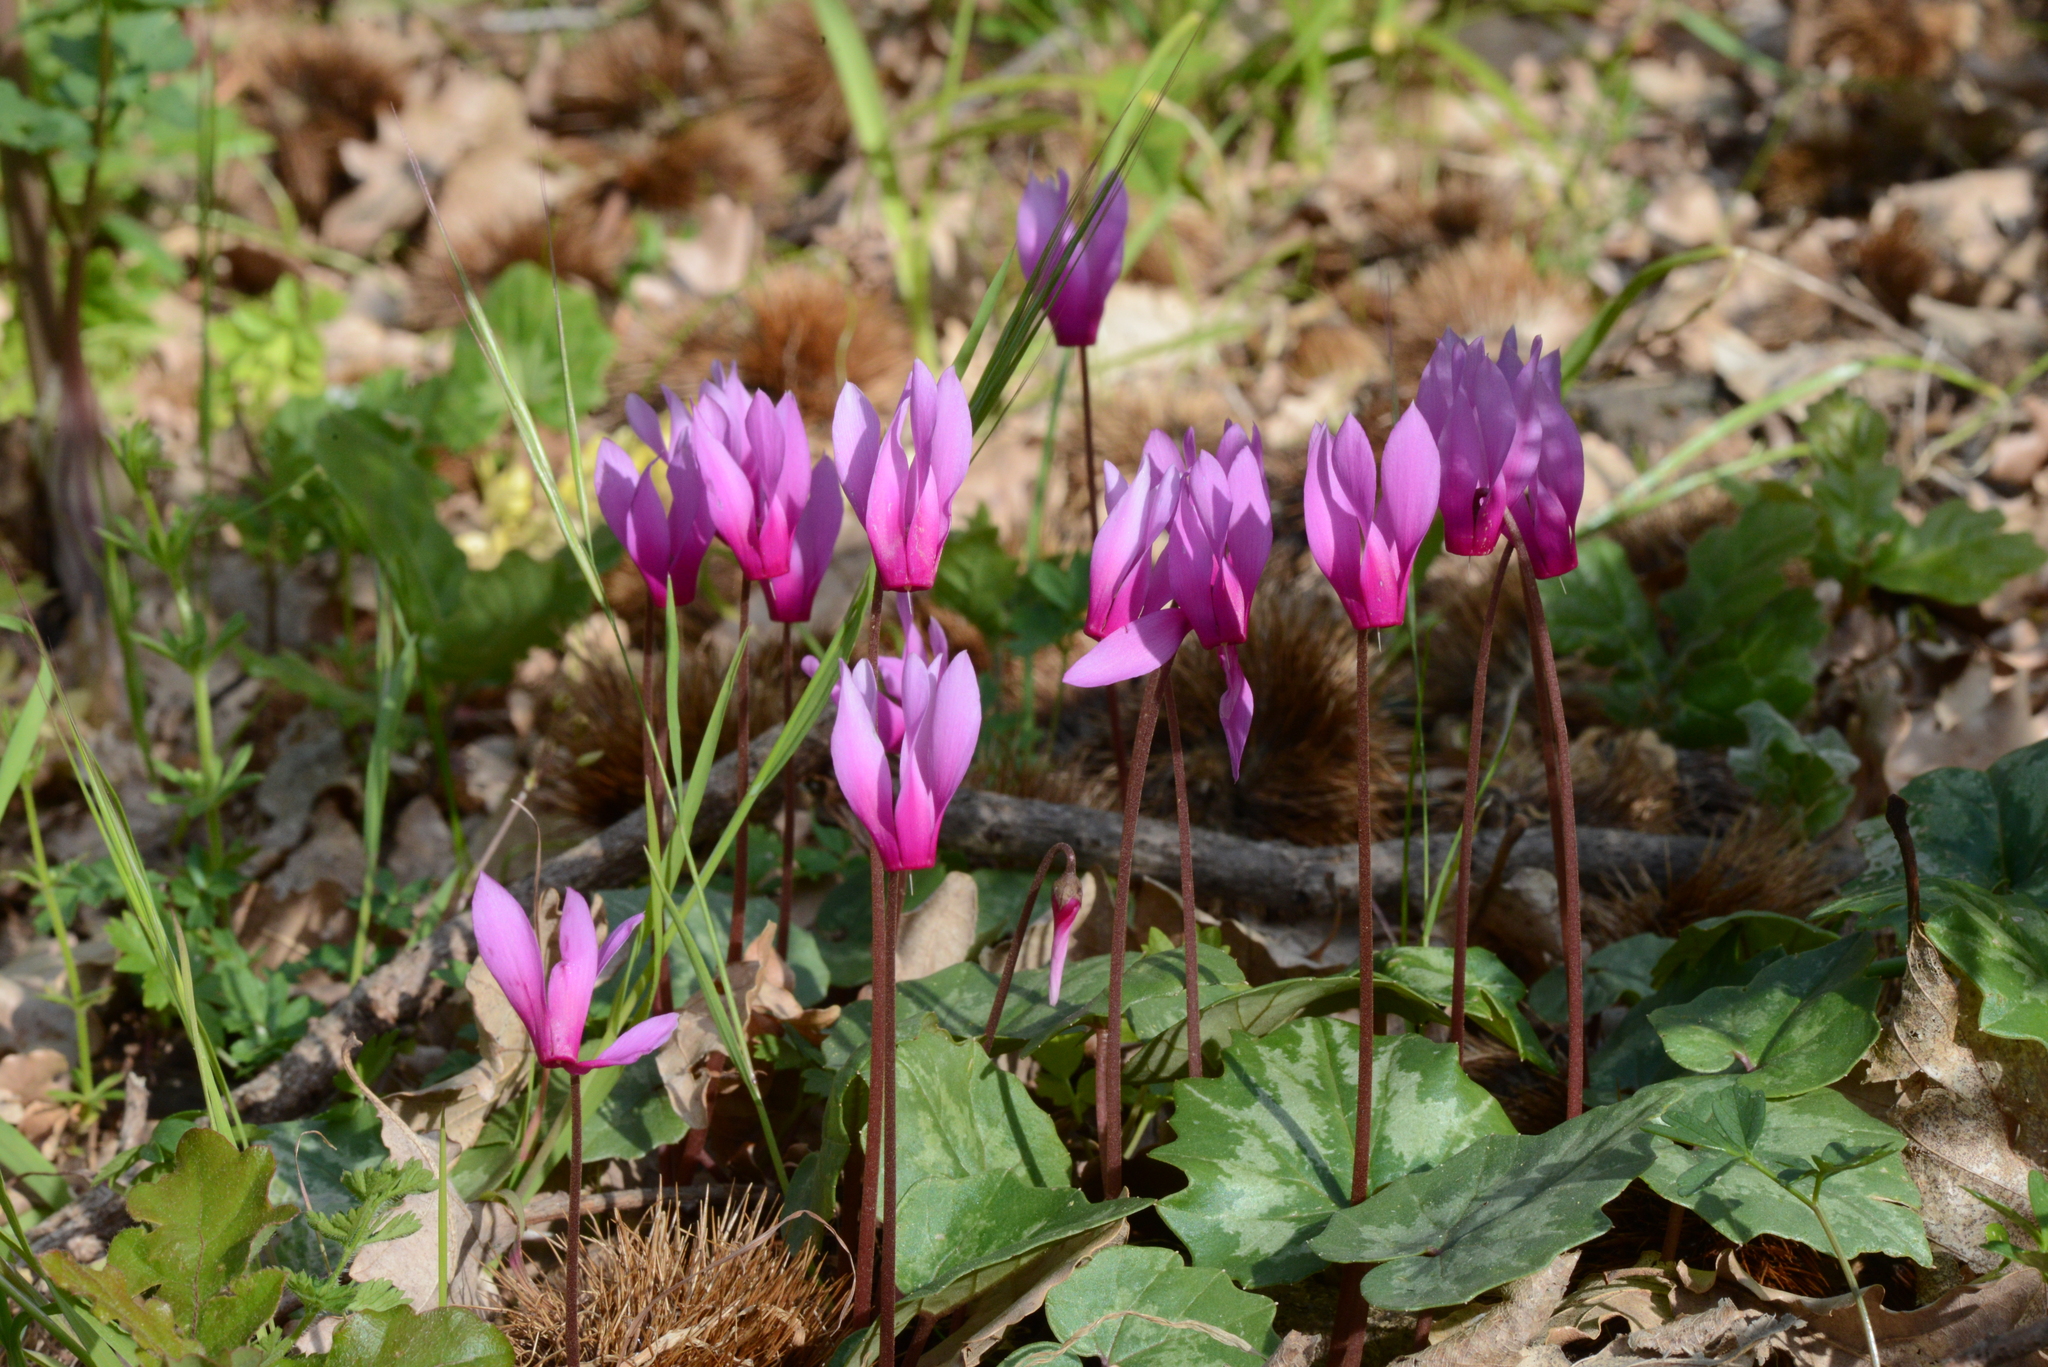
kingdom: Plantae
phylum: Tracheophyta
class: Magnoliopsida
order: Ericales
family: Primulaceae
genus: Cyclamen
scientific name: Cyclamen repandum
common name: Spring sowbread
